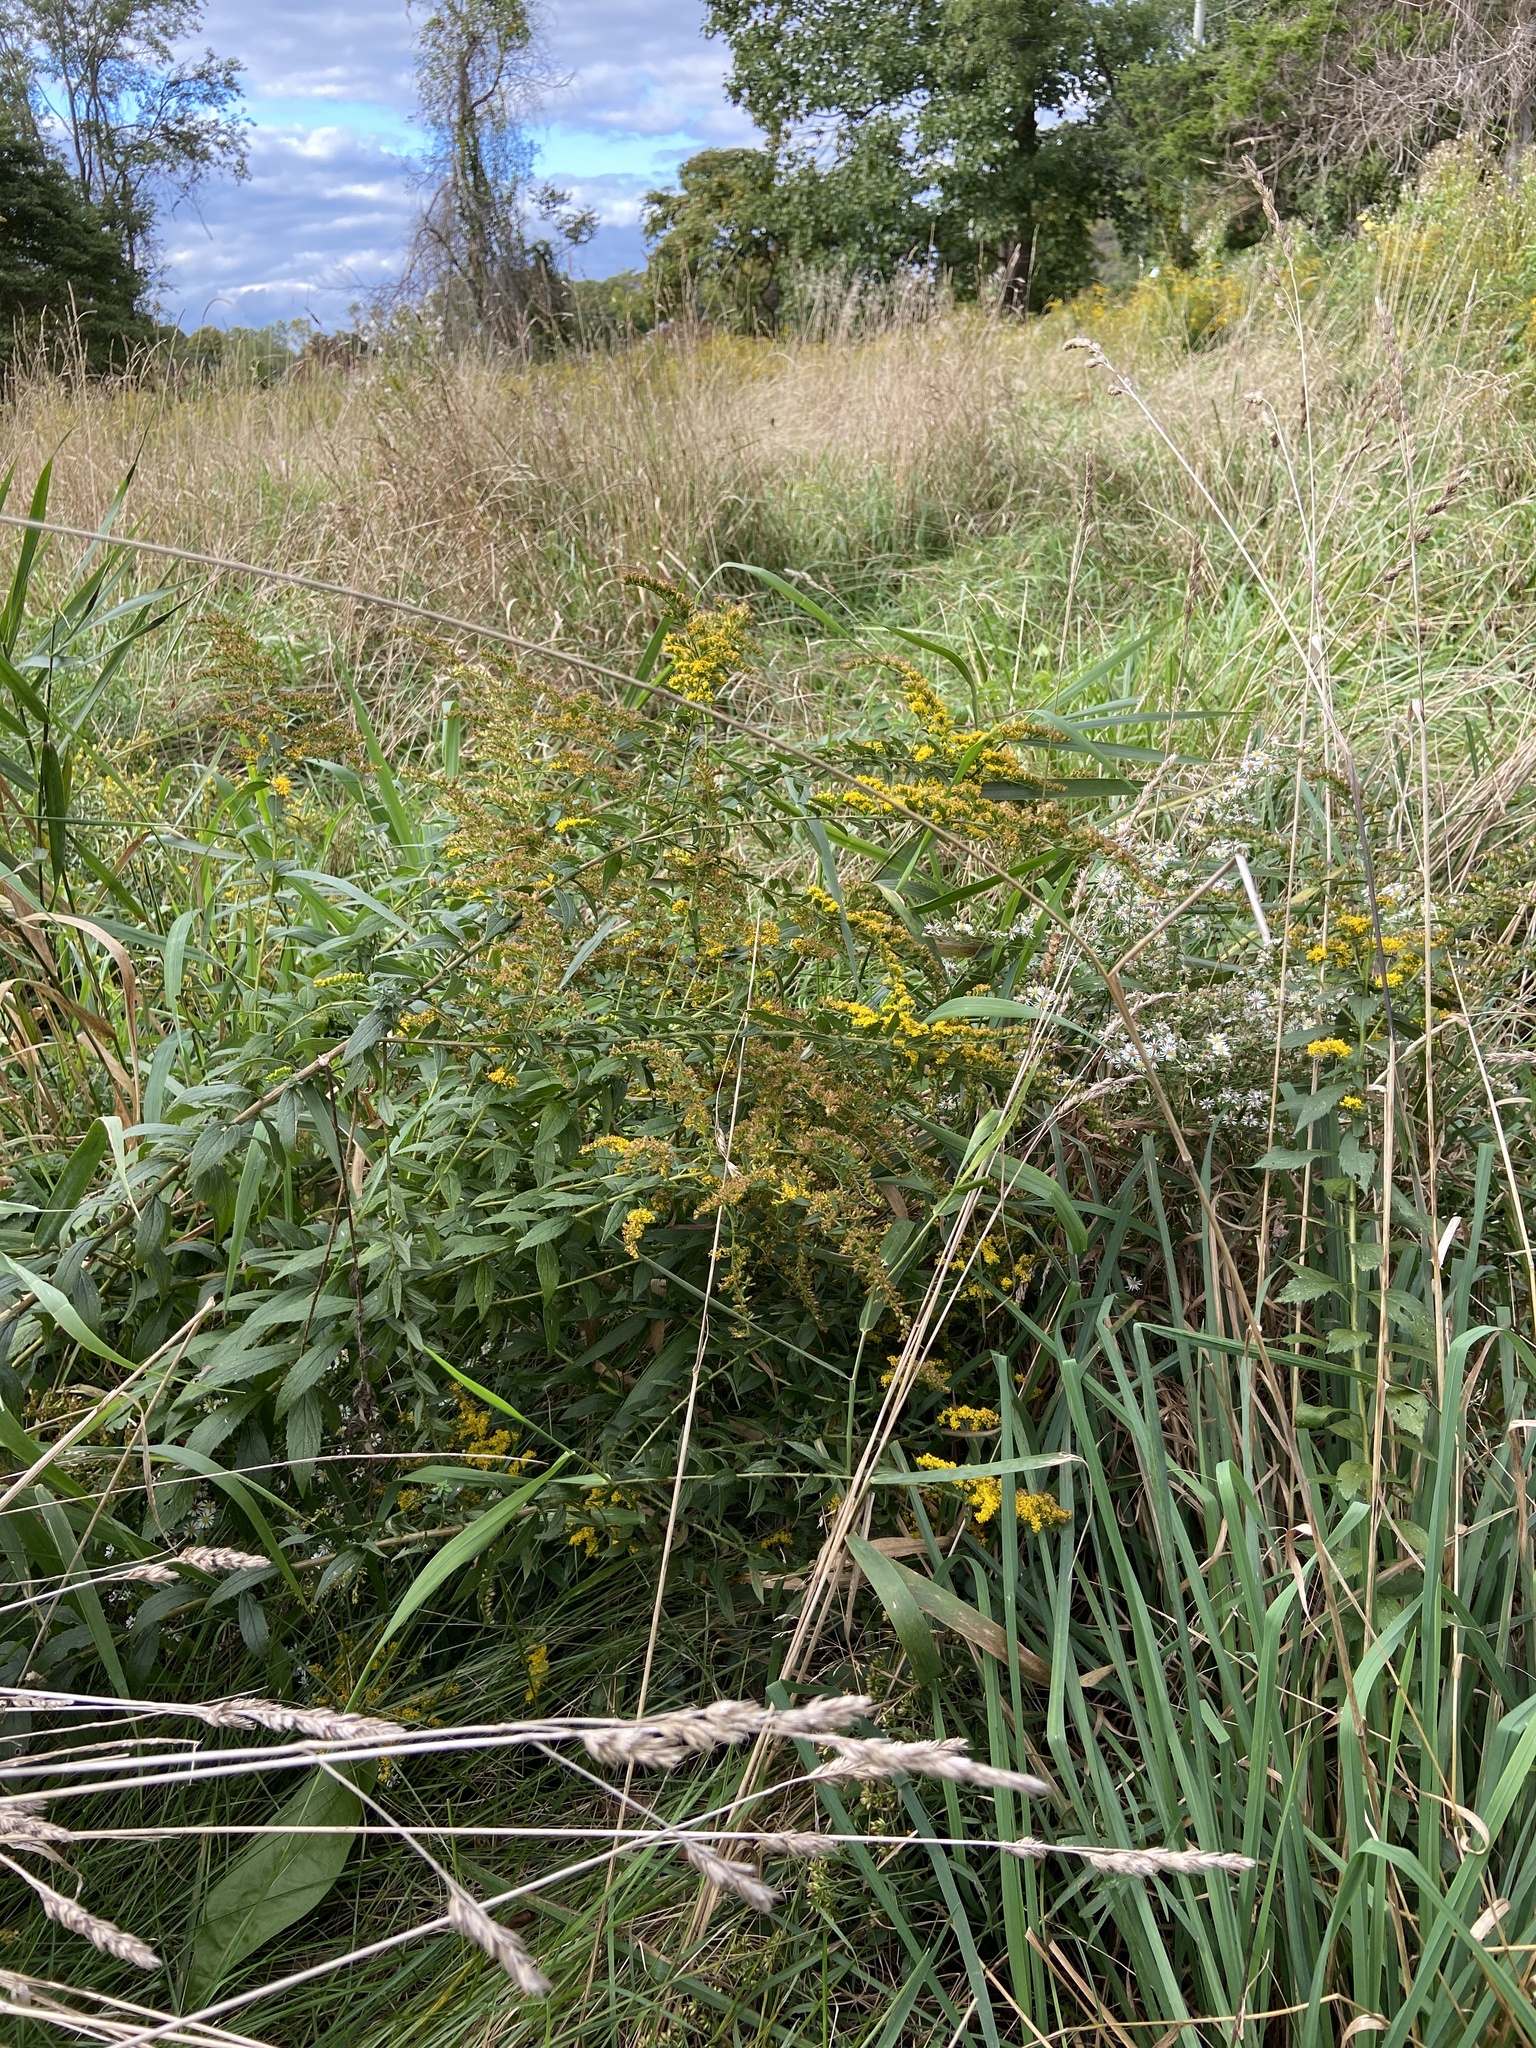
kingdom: Plantae
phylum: Tracheophyta
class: Magnoliopsida
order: Asterales
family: Asteraceae
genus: Solidago
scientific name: Solidago rugosa
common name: Rough-stemmed goldenrod
